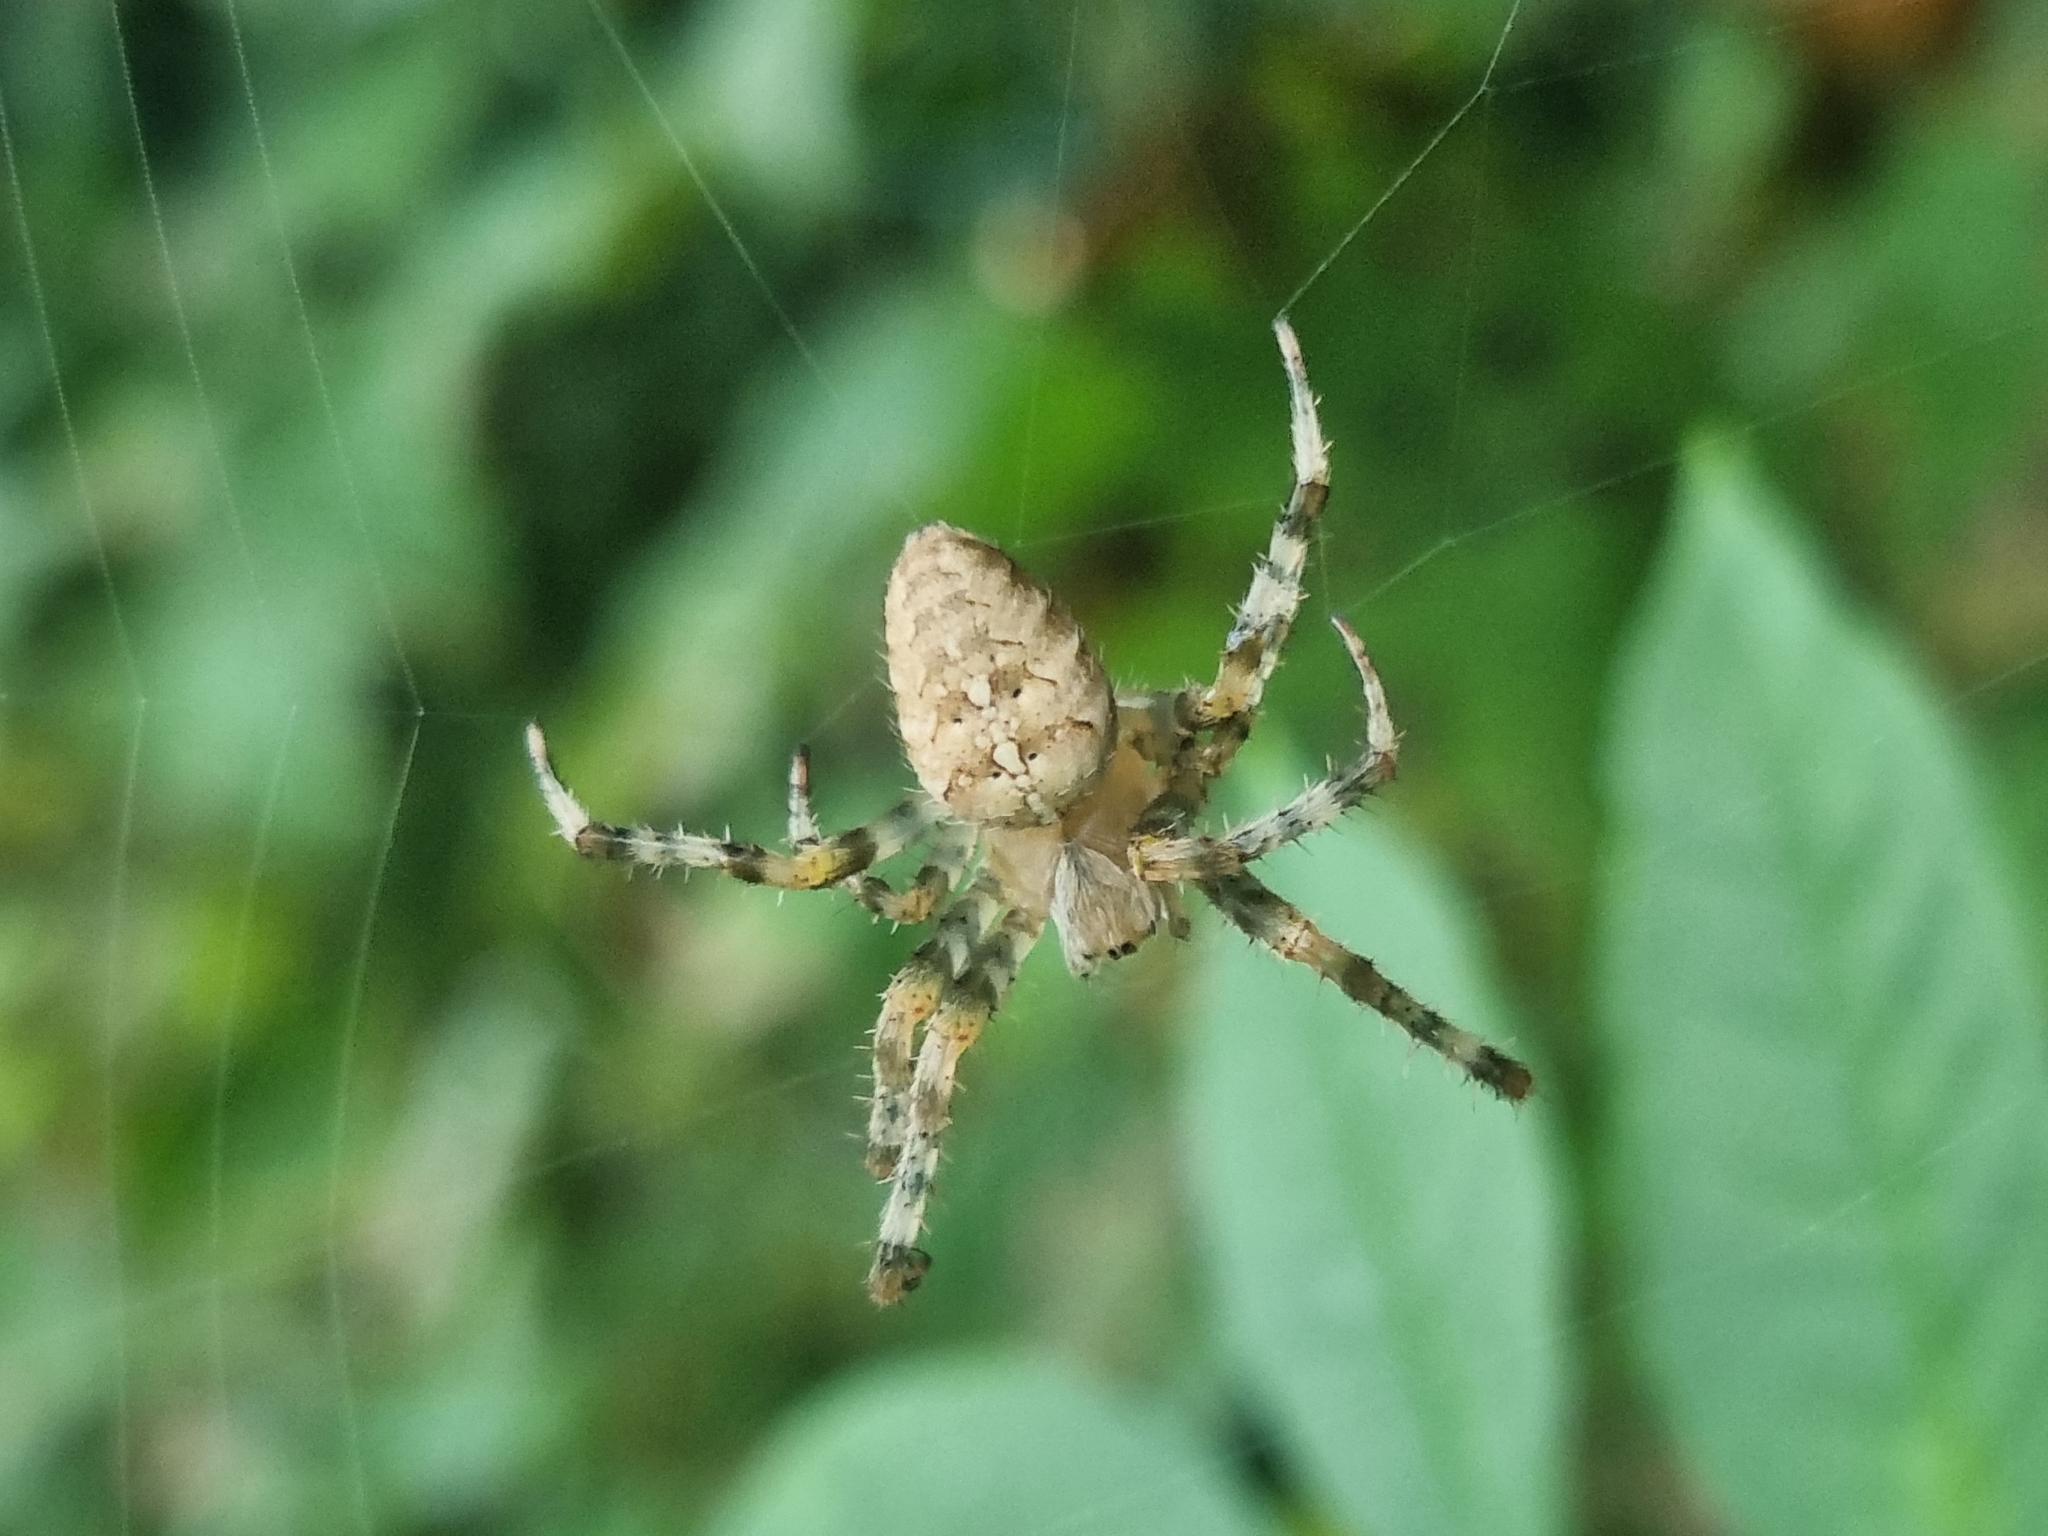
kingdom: Animalia
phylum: Arthropoda
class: Arachnida
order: Araneae
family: Araneidae
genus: Araneus
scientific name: Araneus diadematus
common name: Cross orbweaver
